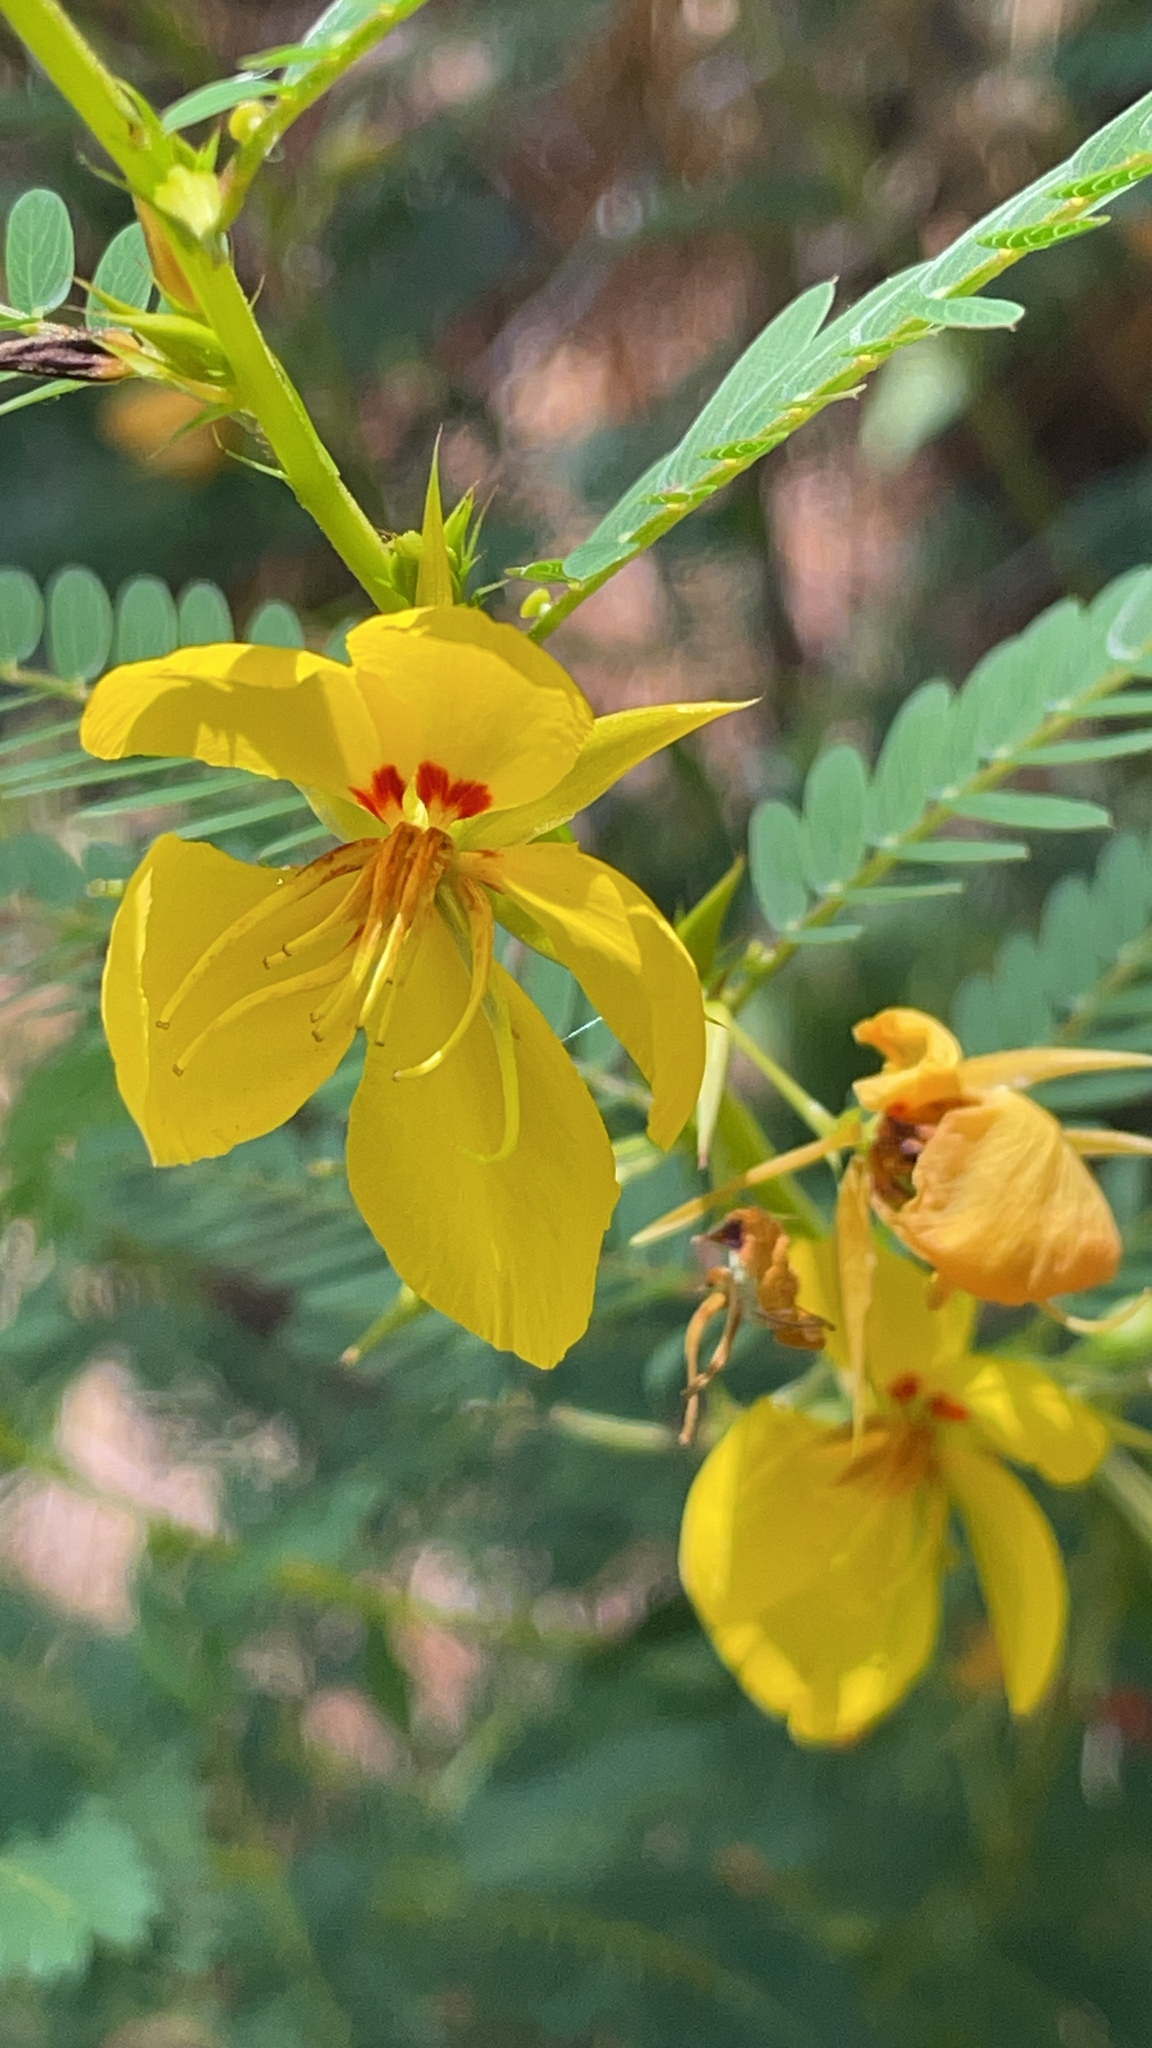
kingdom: Plantae
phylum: Tracheophyta
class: Magnoliopsida
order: Fabales
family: Fabaceae
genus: Chamaecrista
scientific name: Chamaecrista fasciculata
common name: Golden cassia
